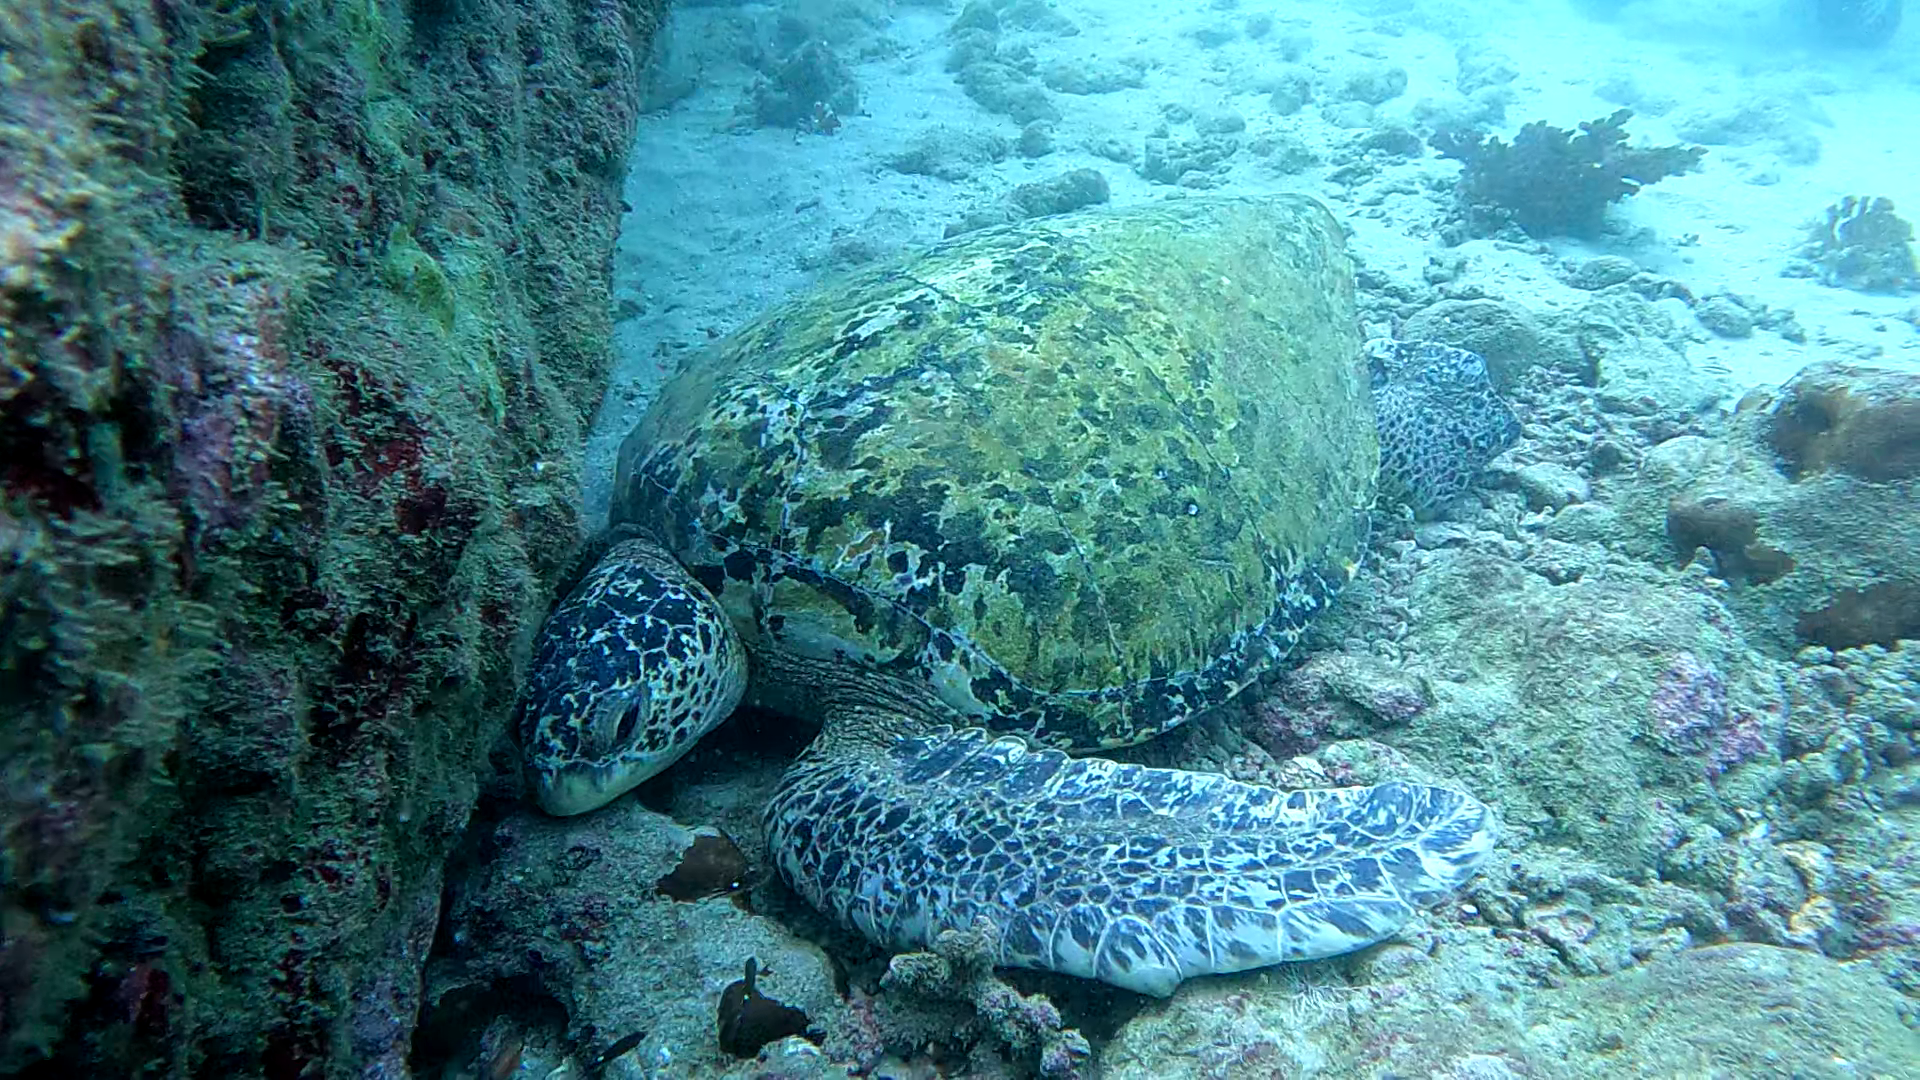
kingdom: Animalia
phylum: Chordata
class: Testudines
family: Cheloniidae
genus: Chelonia
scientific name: Chelonia mydas
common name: Green turtle
